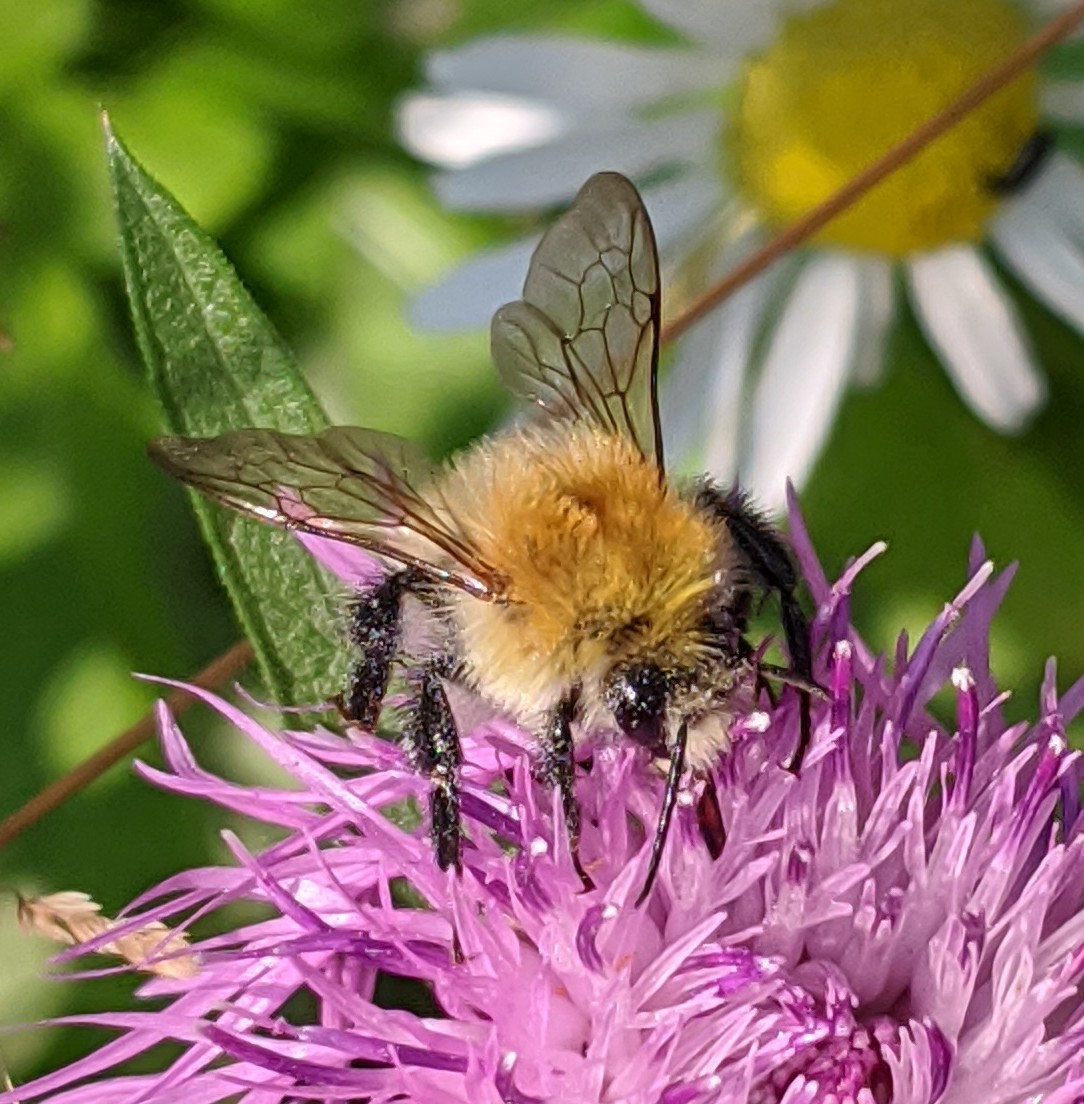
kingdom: Animalia
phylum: Arthropoda
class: Insecta
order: Hymenoptera
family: Apidae
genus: Bombus
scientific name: Bombus pascuorum
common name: Common carder bee
